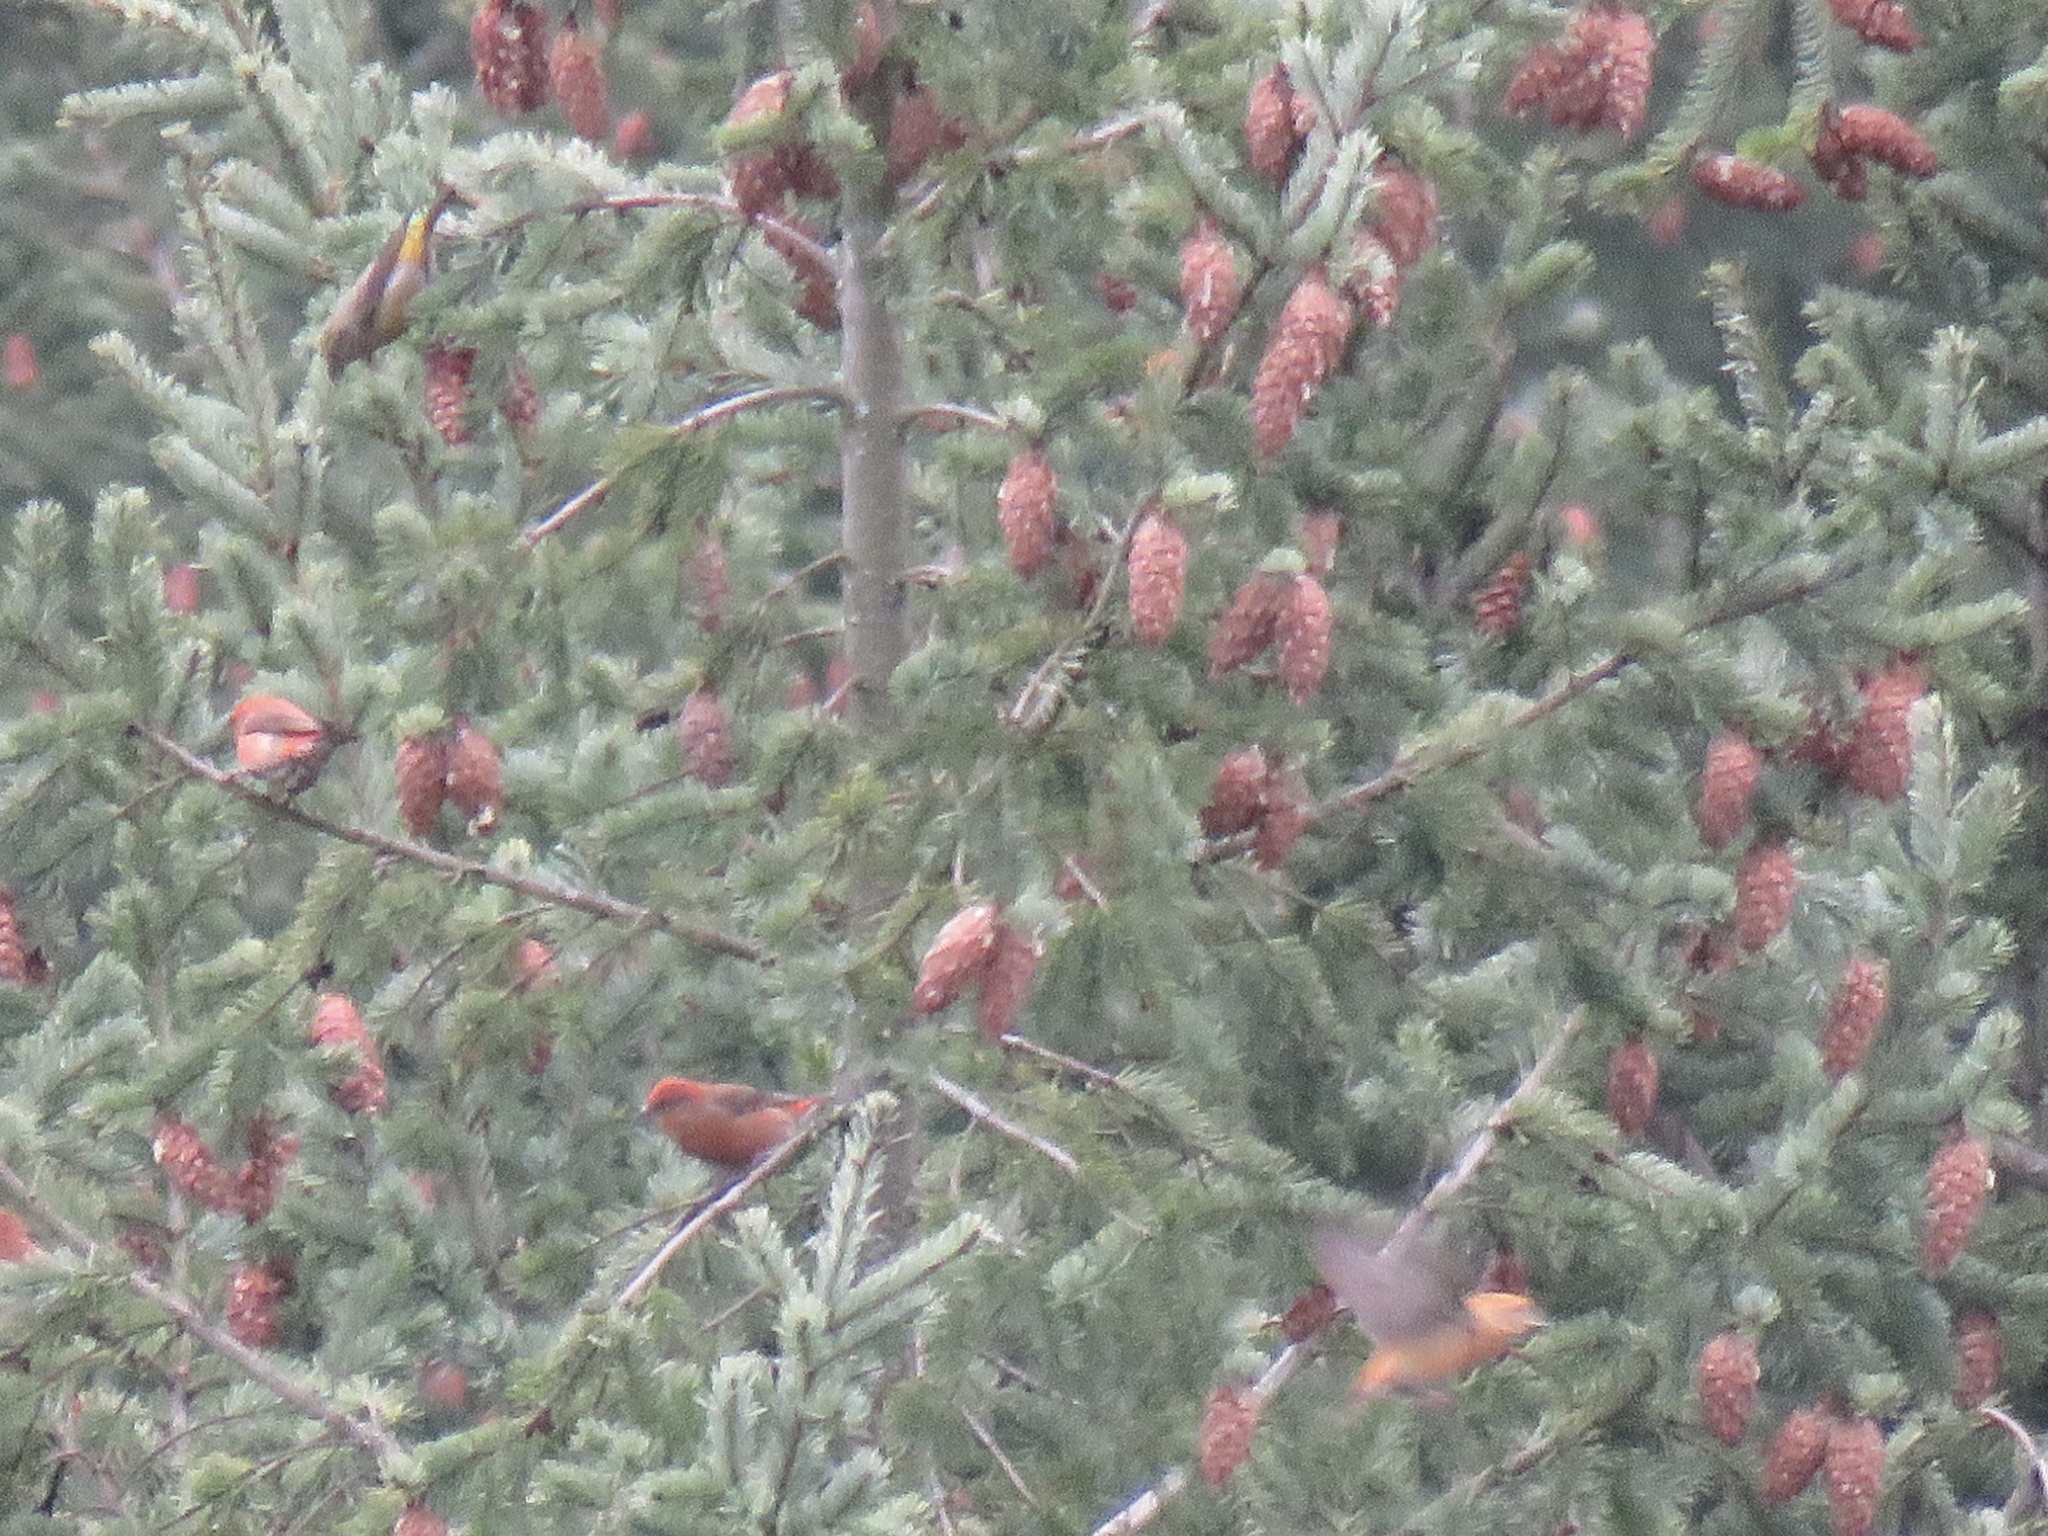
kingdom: Animalia
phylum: Chordata
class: Aves
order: Passeriformes
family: Fringillidae
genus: Loxia
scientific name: Loxia curvirostra
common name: Red crossbill
